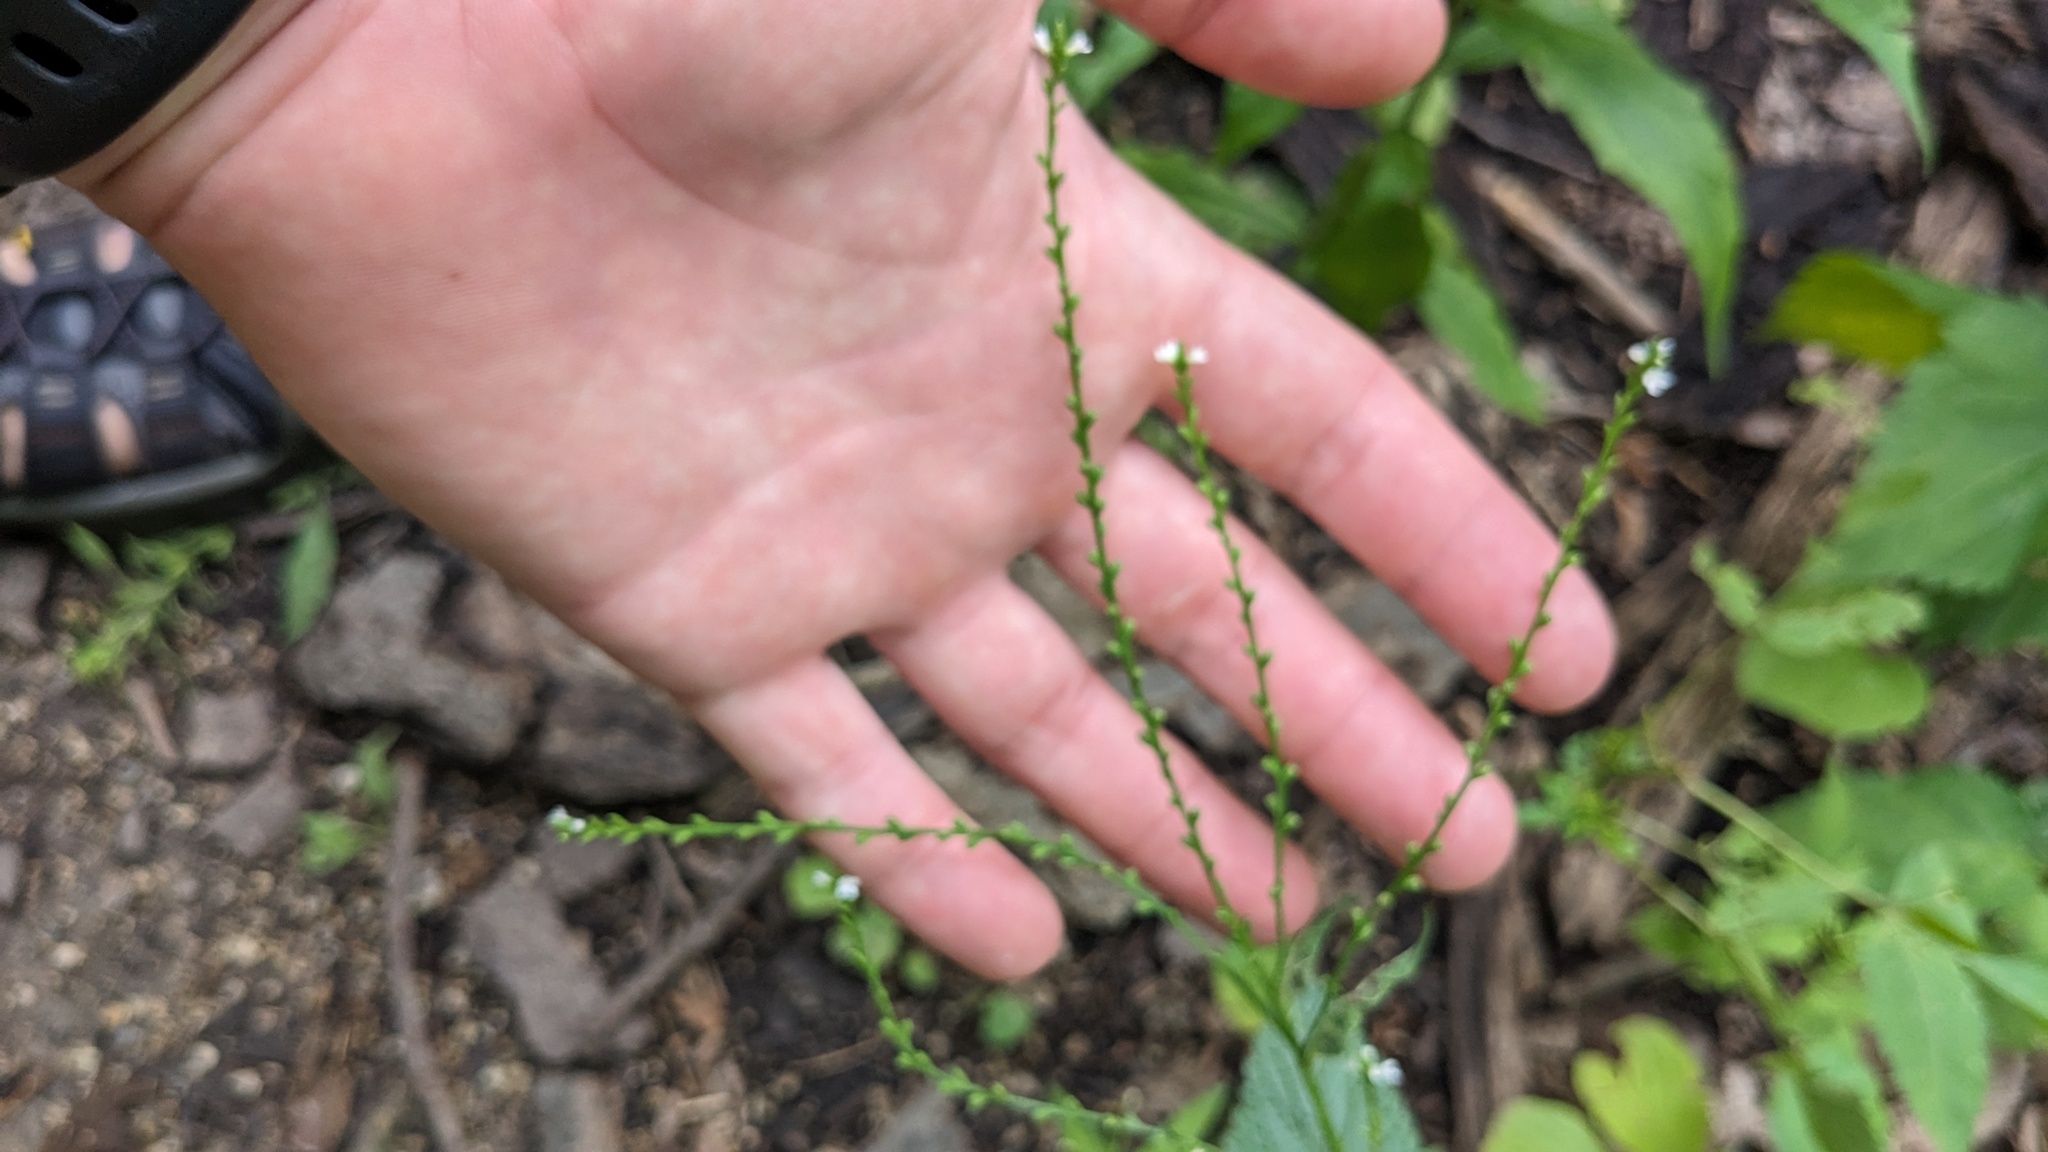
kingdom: Plantae
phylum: Tracheophyta
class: Magnoliopsida
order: Lamiales
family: Verbenaceae
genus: Verbena
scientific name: Verbena urticifolia
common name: Nettle-leaved vervain
